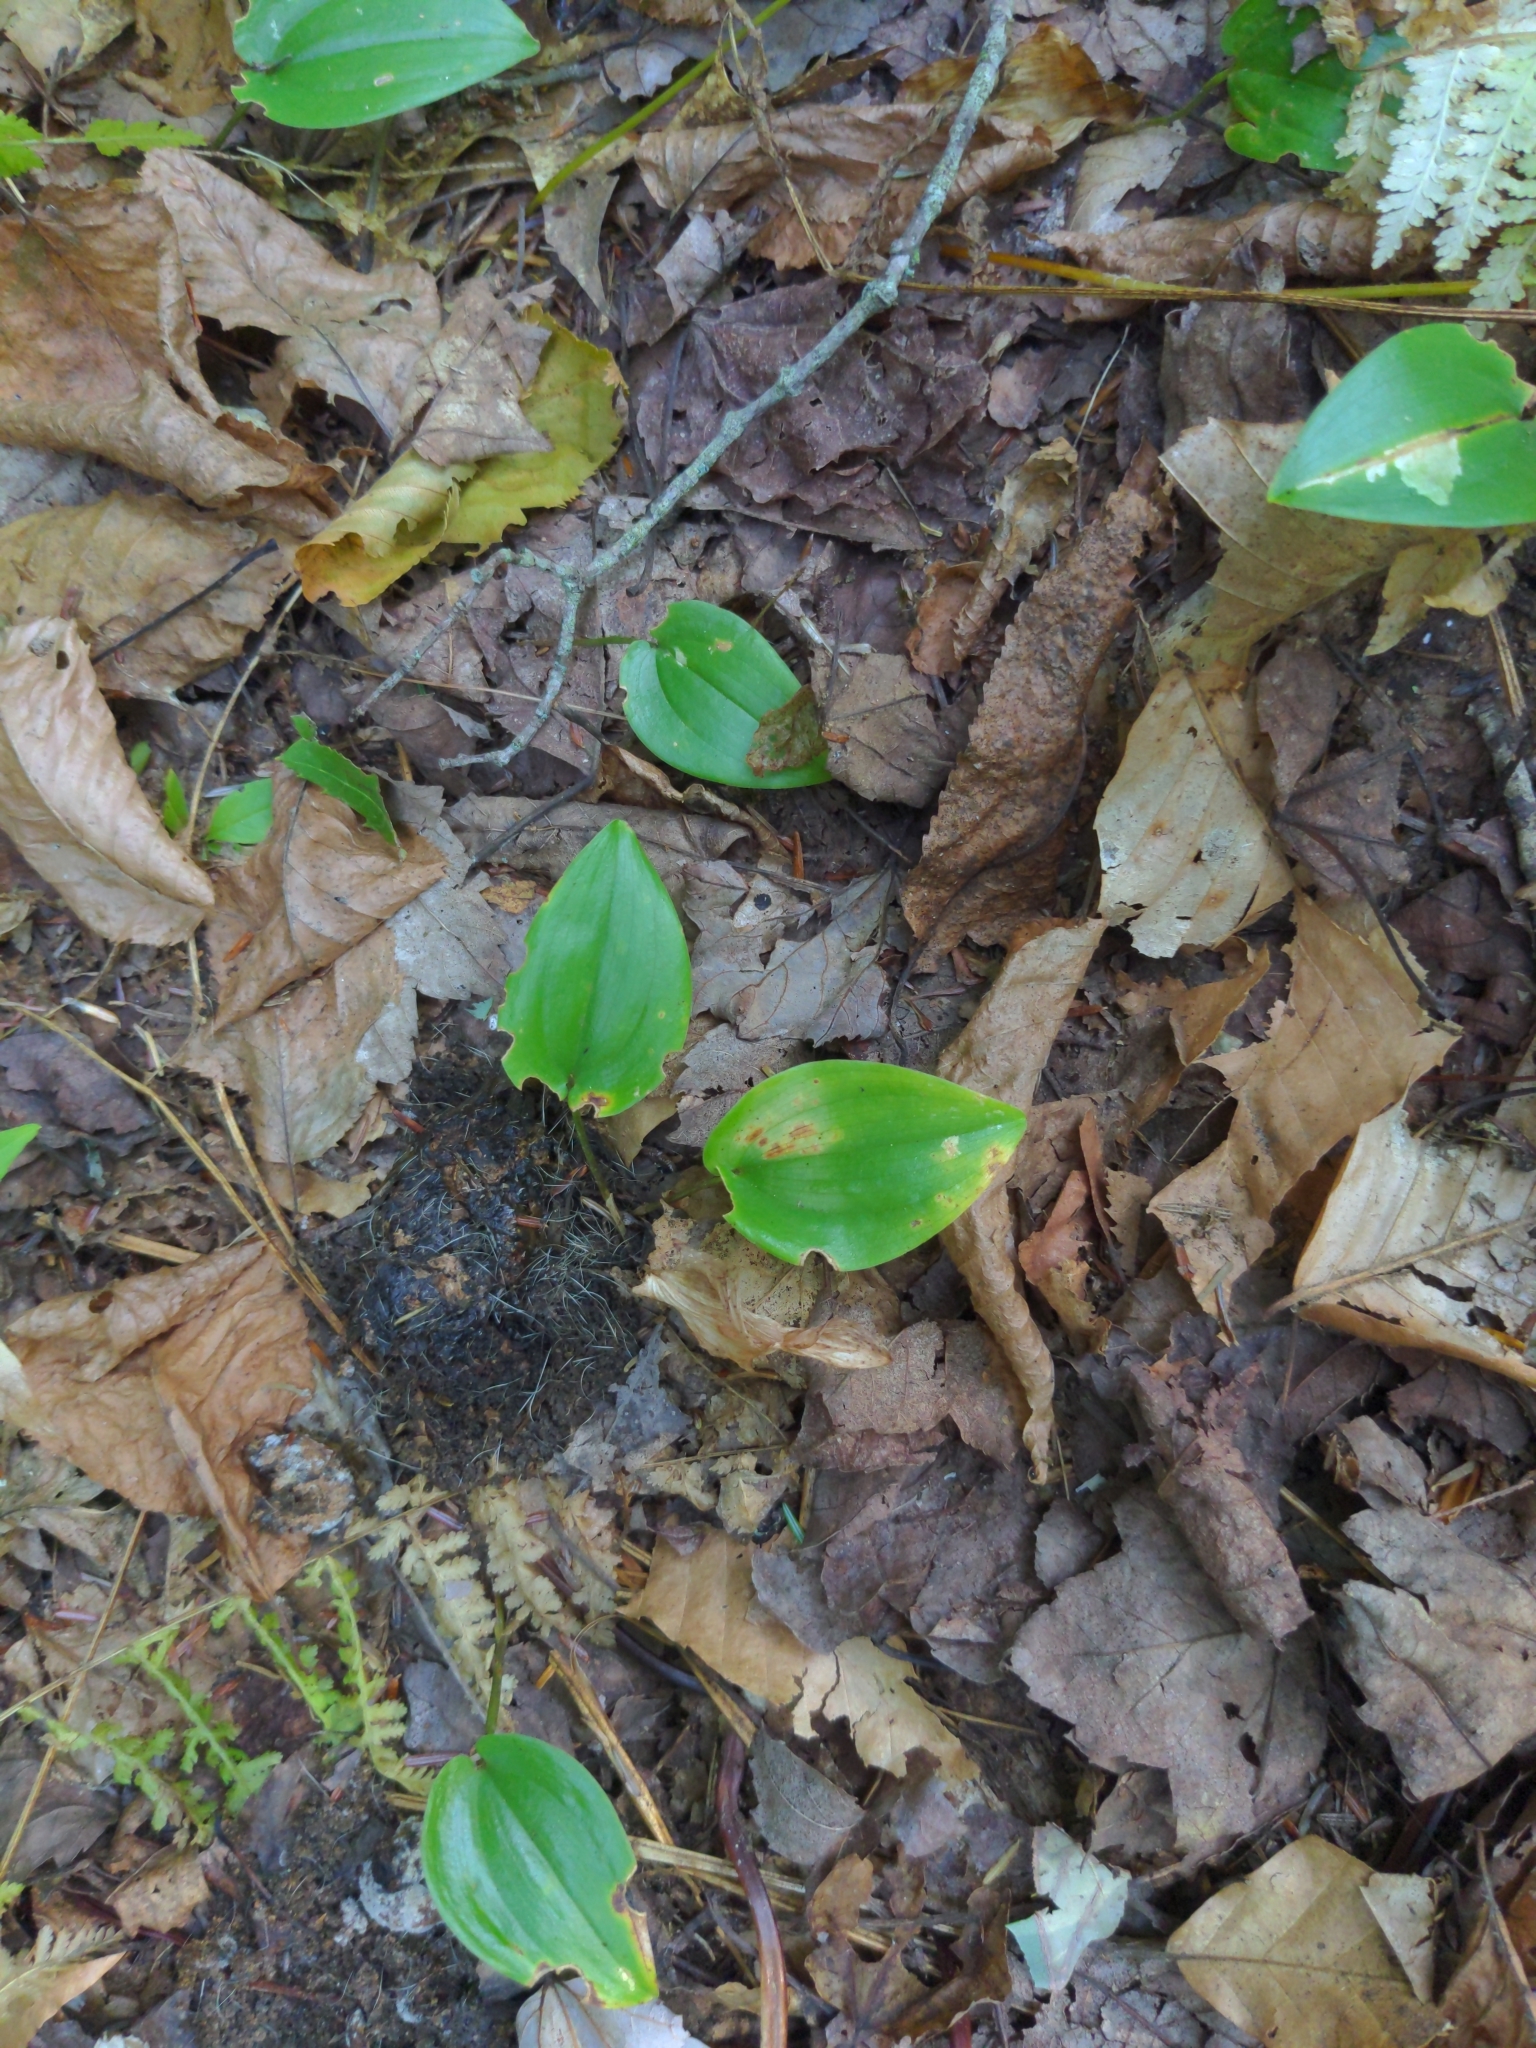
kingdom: Plantae
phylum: Tracheophyta
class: Liliopsida
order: Asparagales
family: Asparagaceae
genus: Maianthemum
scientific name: Maianthemum canadense
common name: False lily-of-the-valley
